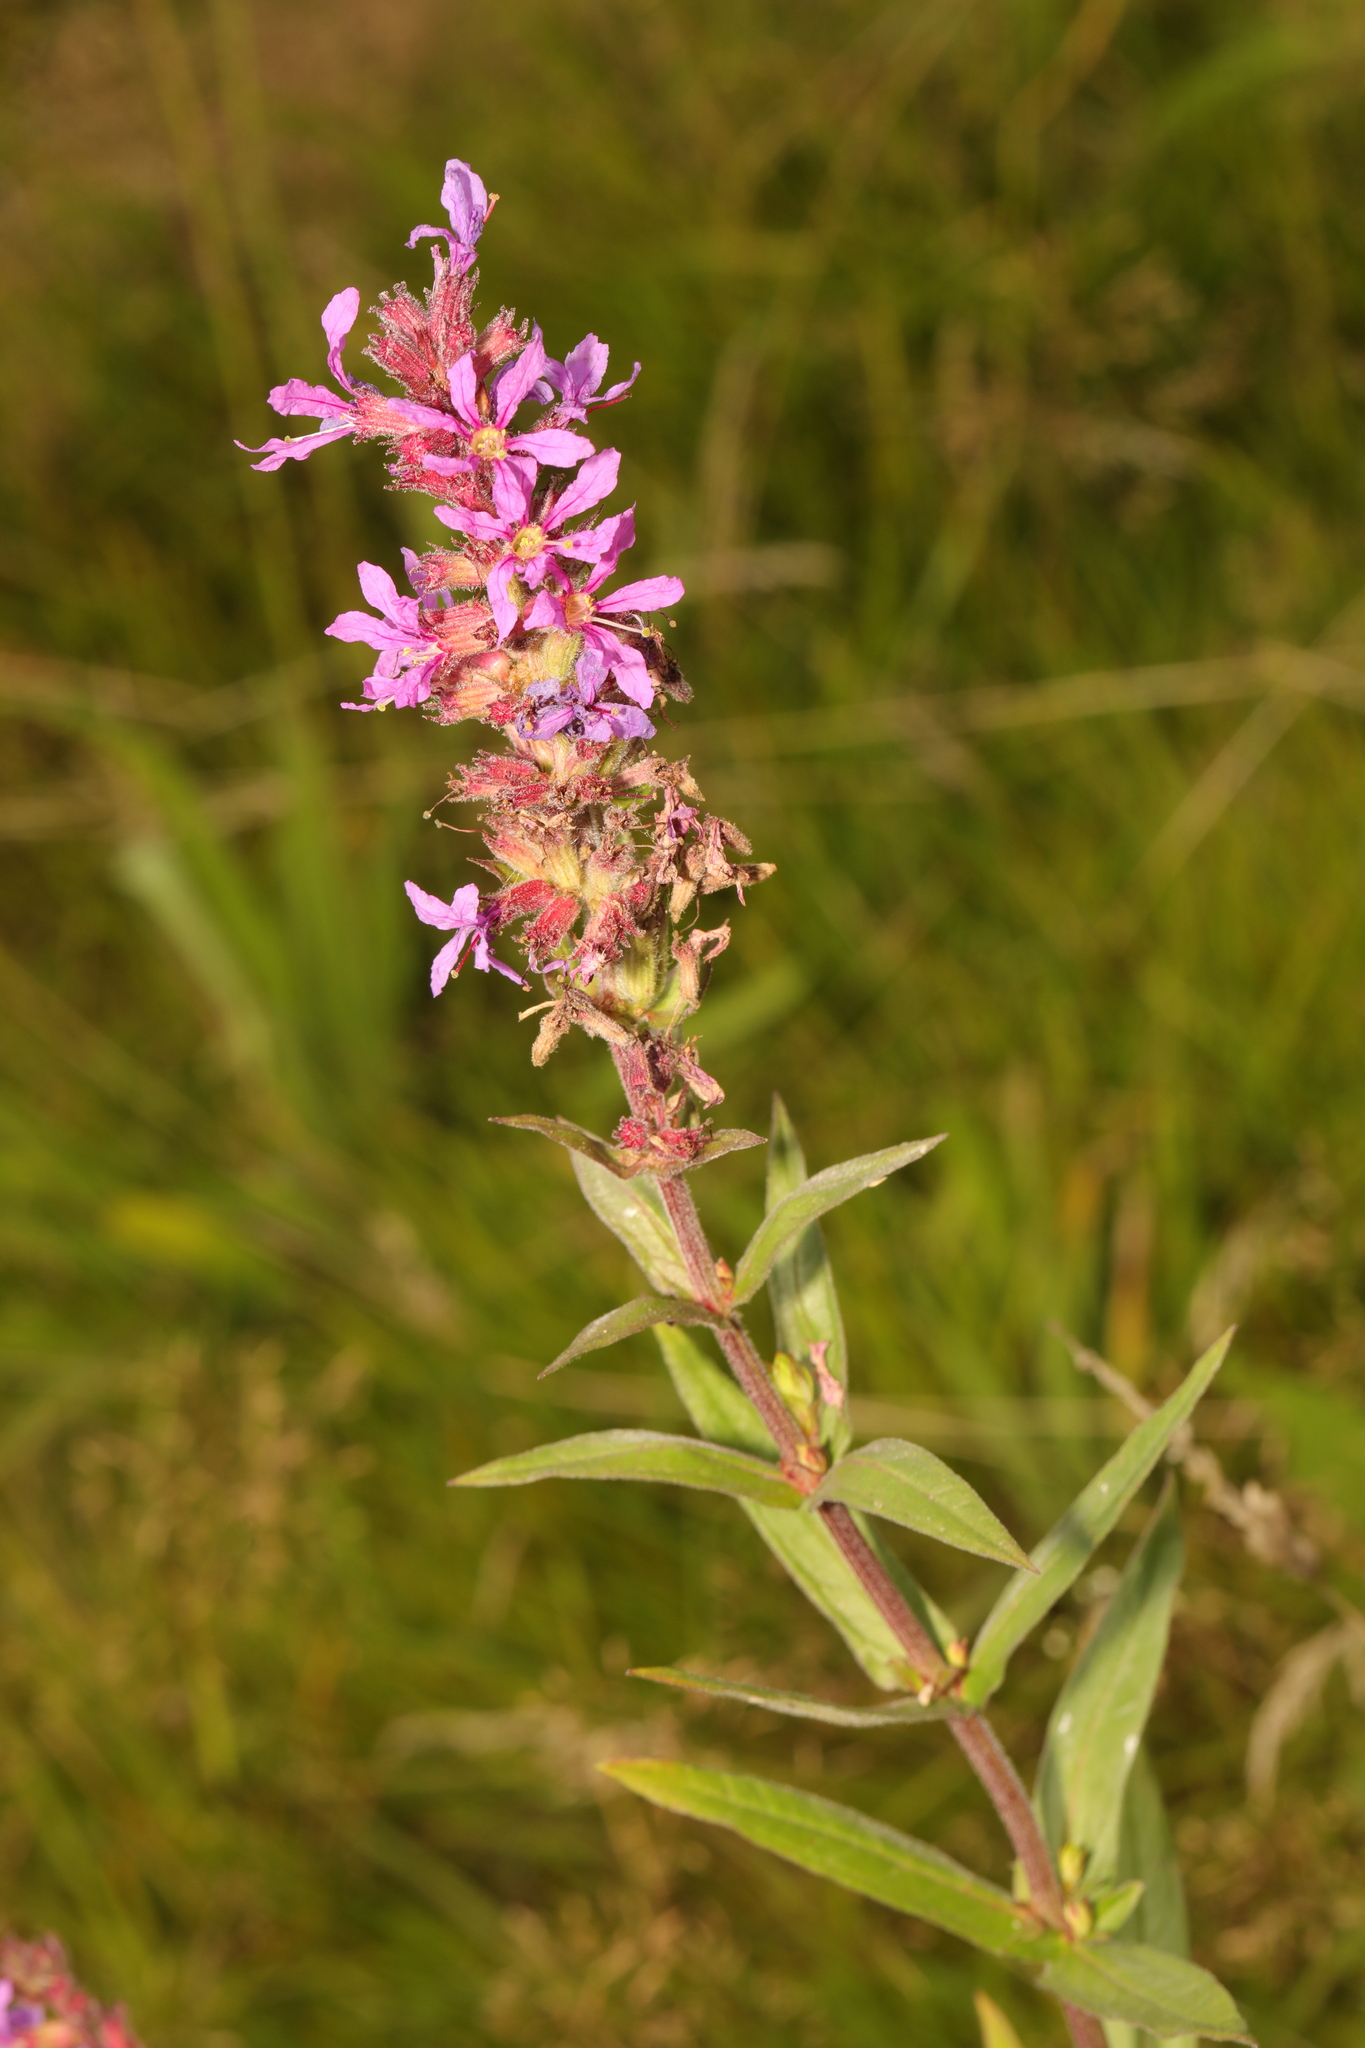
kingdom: Plantae
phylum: Tracheophyta
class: Magnoliopsida
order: Myrtales
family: Lythraceae
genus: Lythrum
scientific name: Lythrum salicaria
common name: Purple loosestrife
